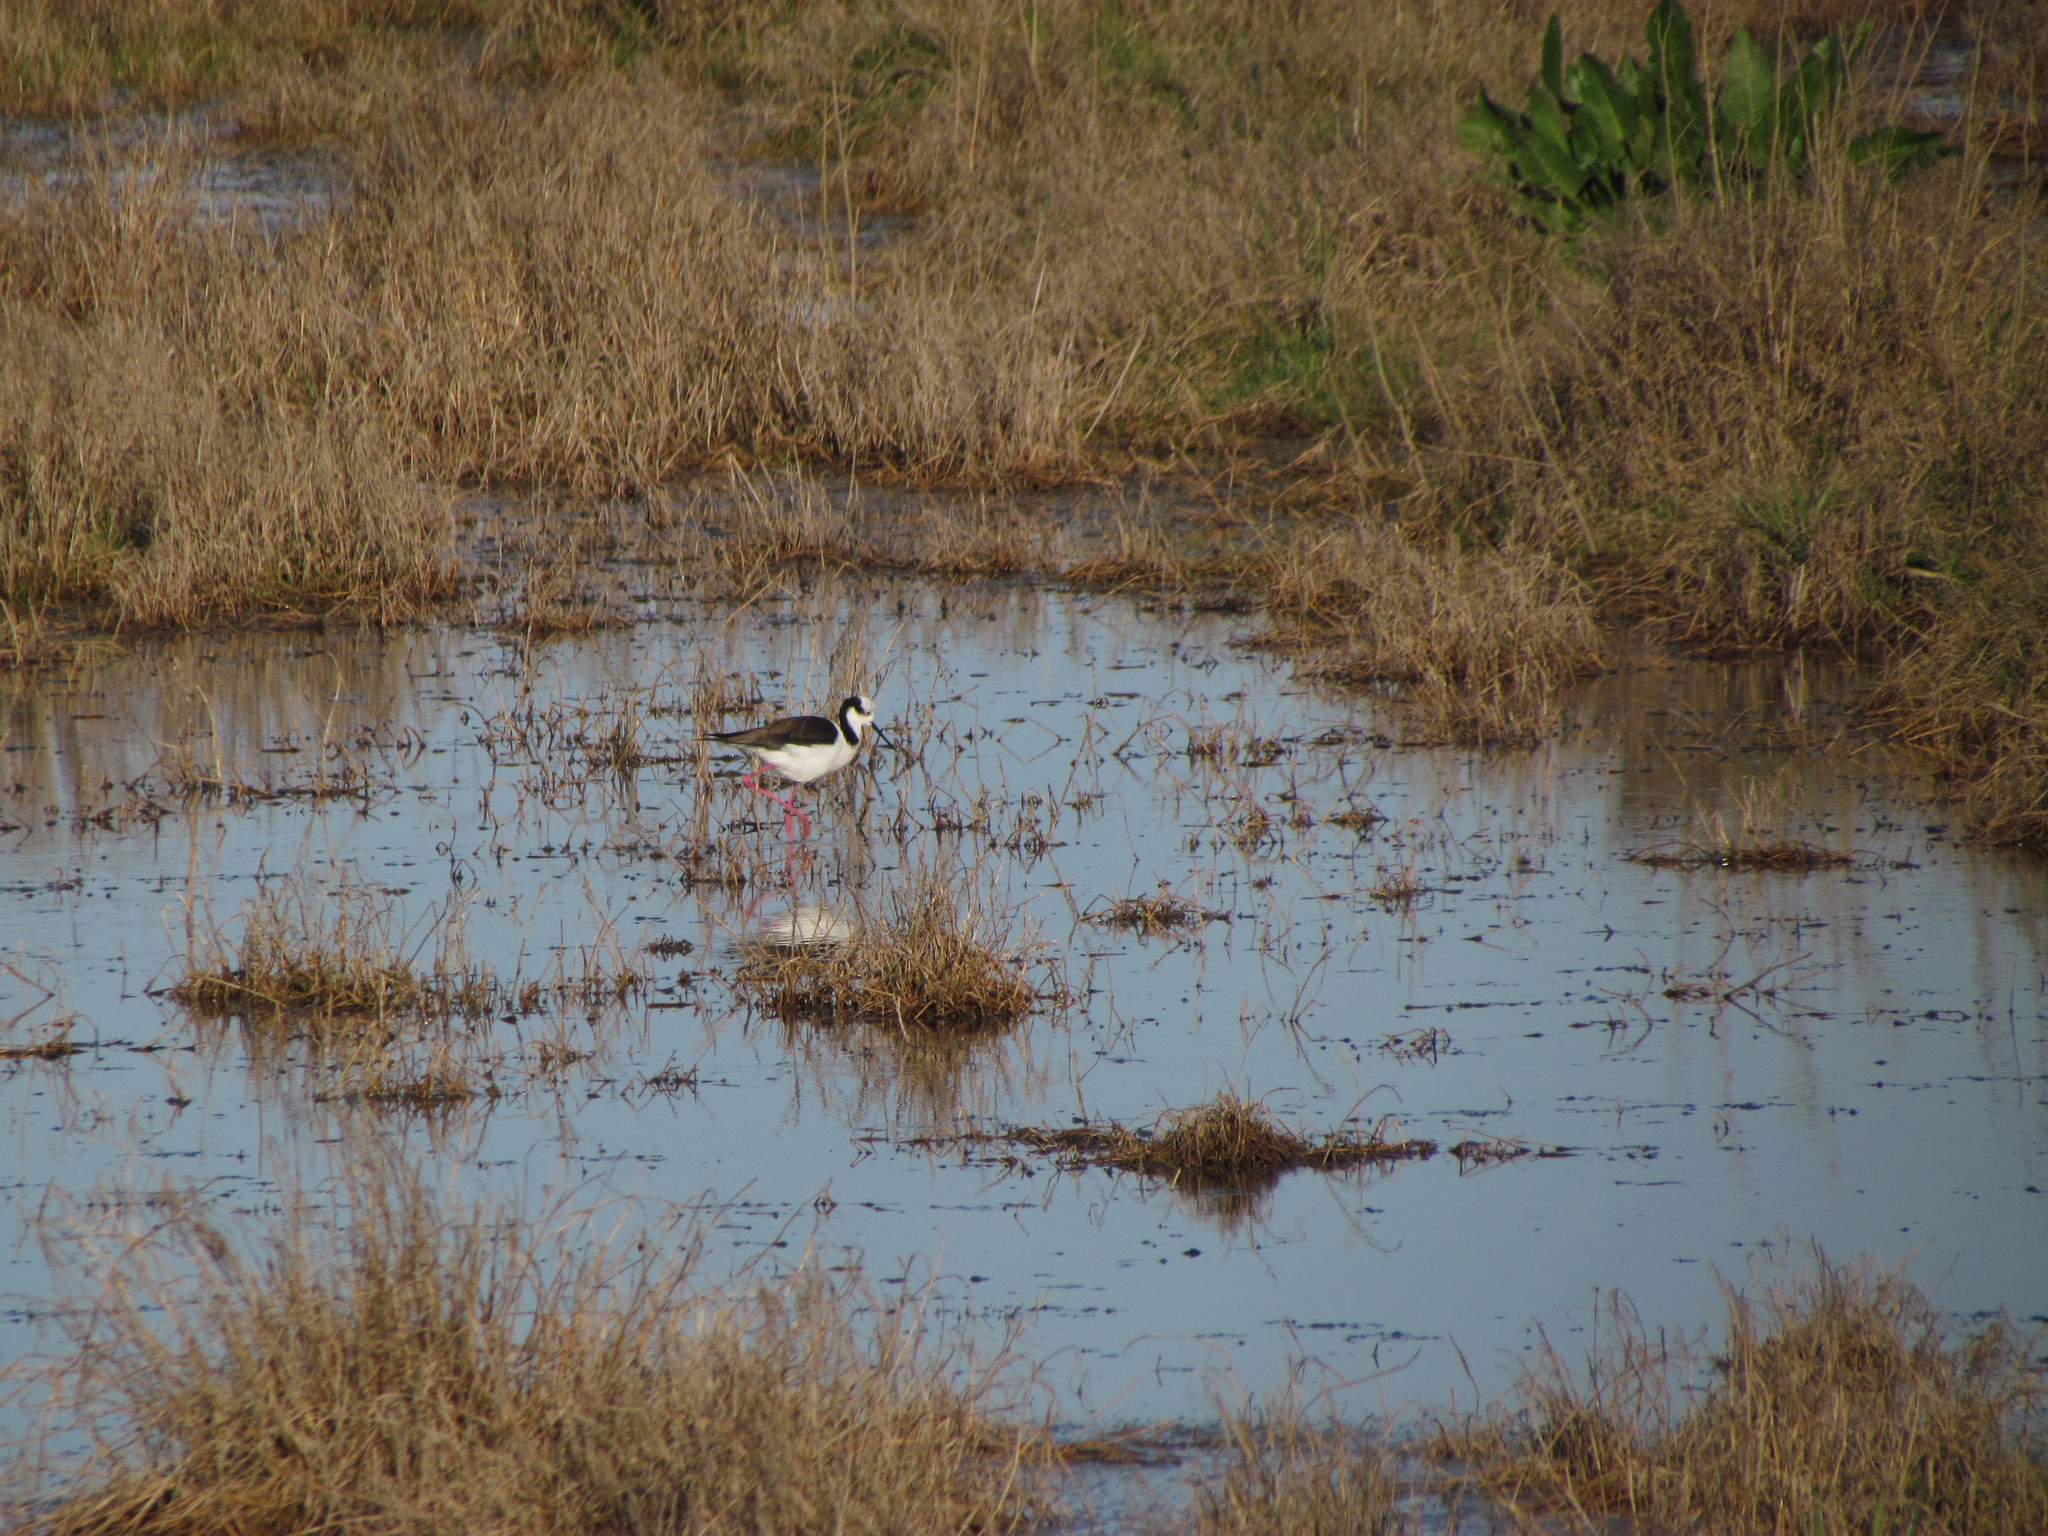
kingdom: Animalia
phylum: Chordata
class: Aves
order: Charadriiformes
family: Recurvirostridae
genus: Himantopus
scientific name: Himantopus mexicanus
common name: Black-necked stilt
